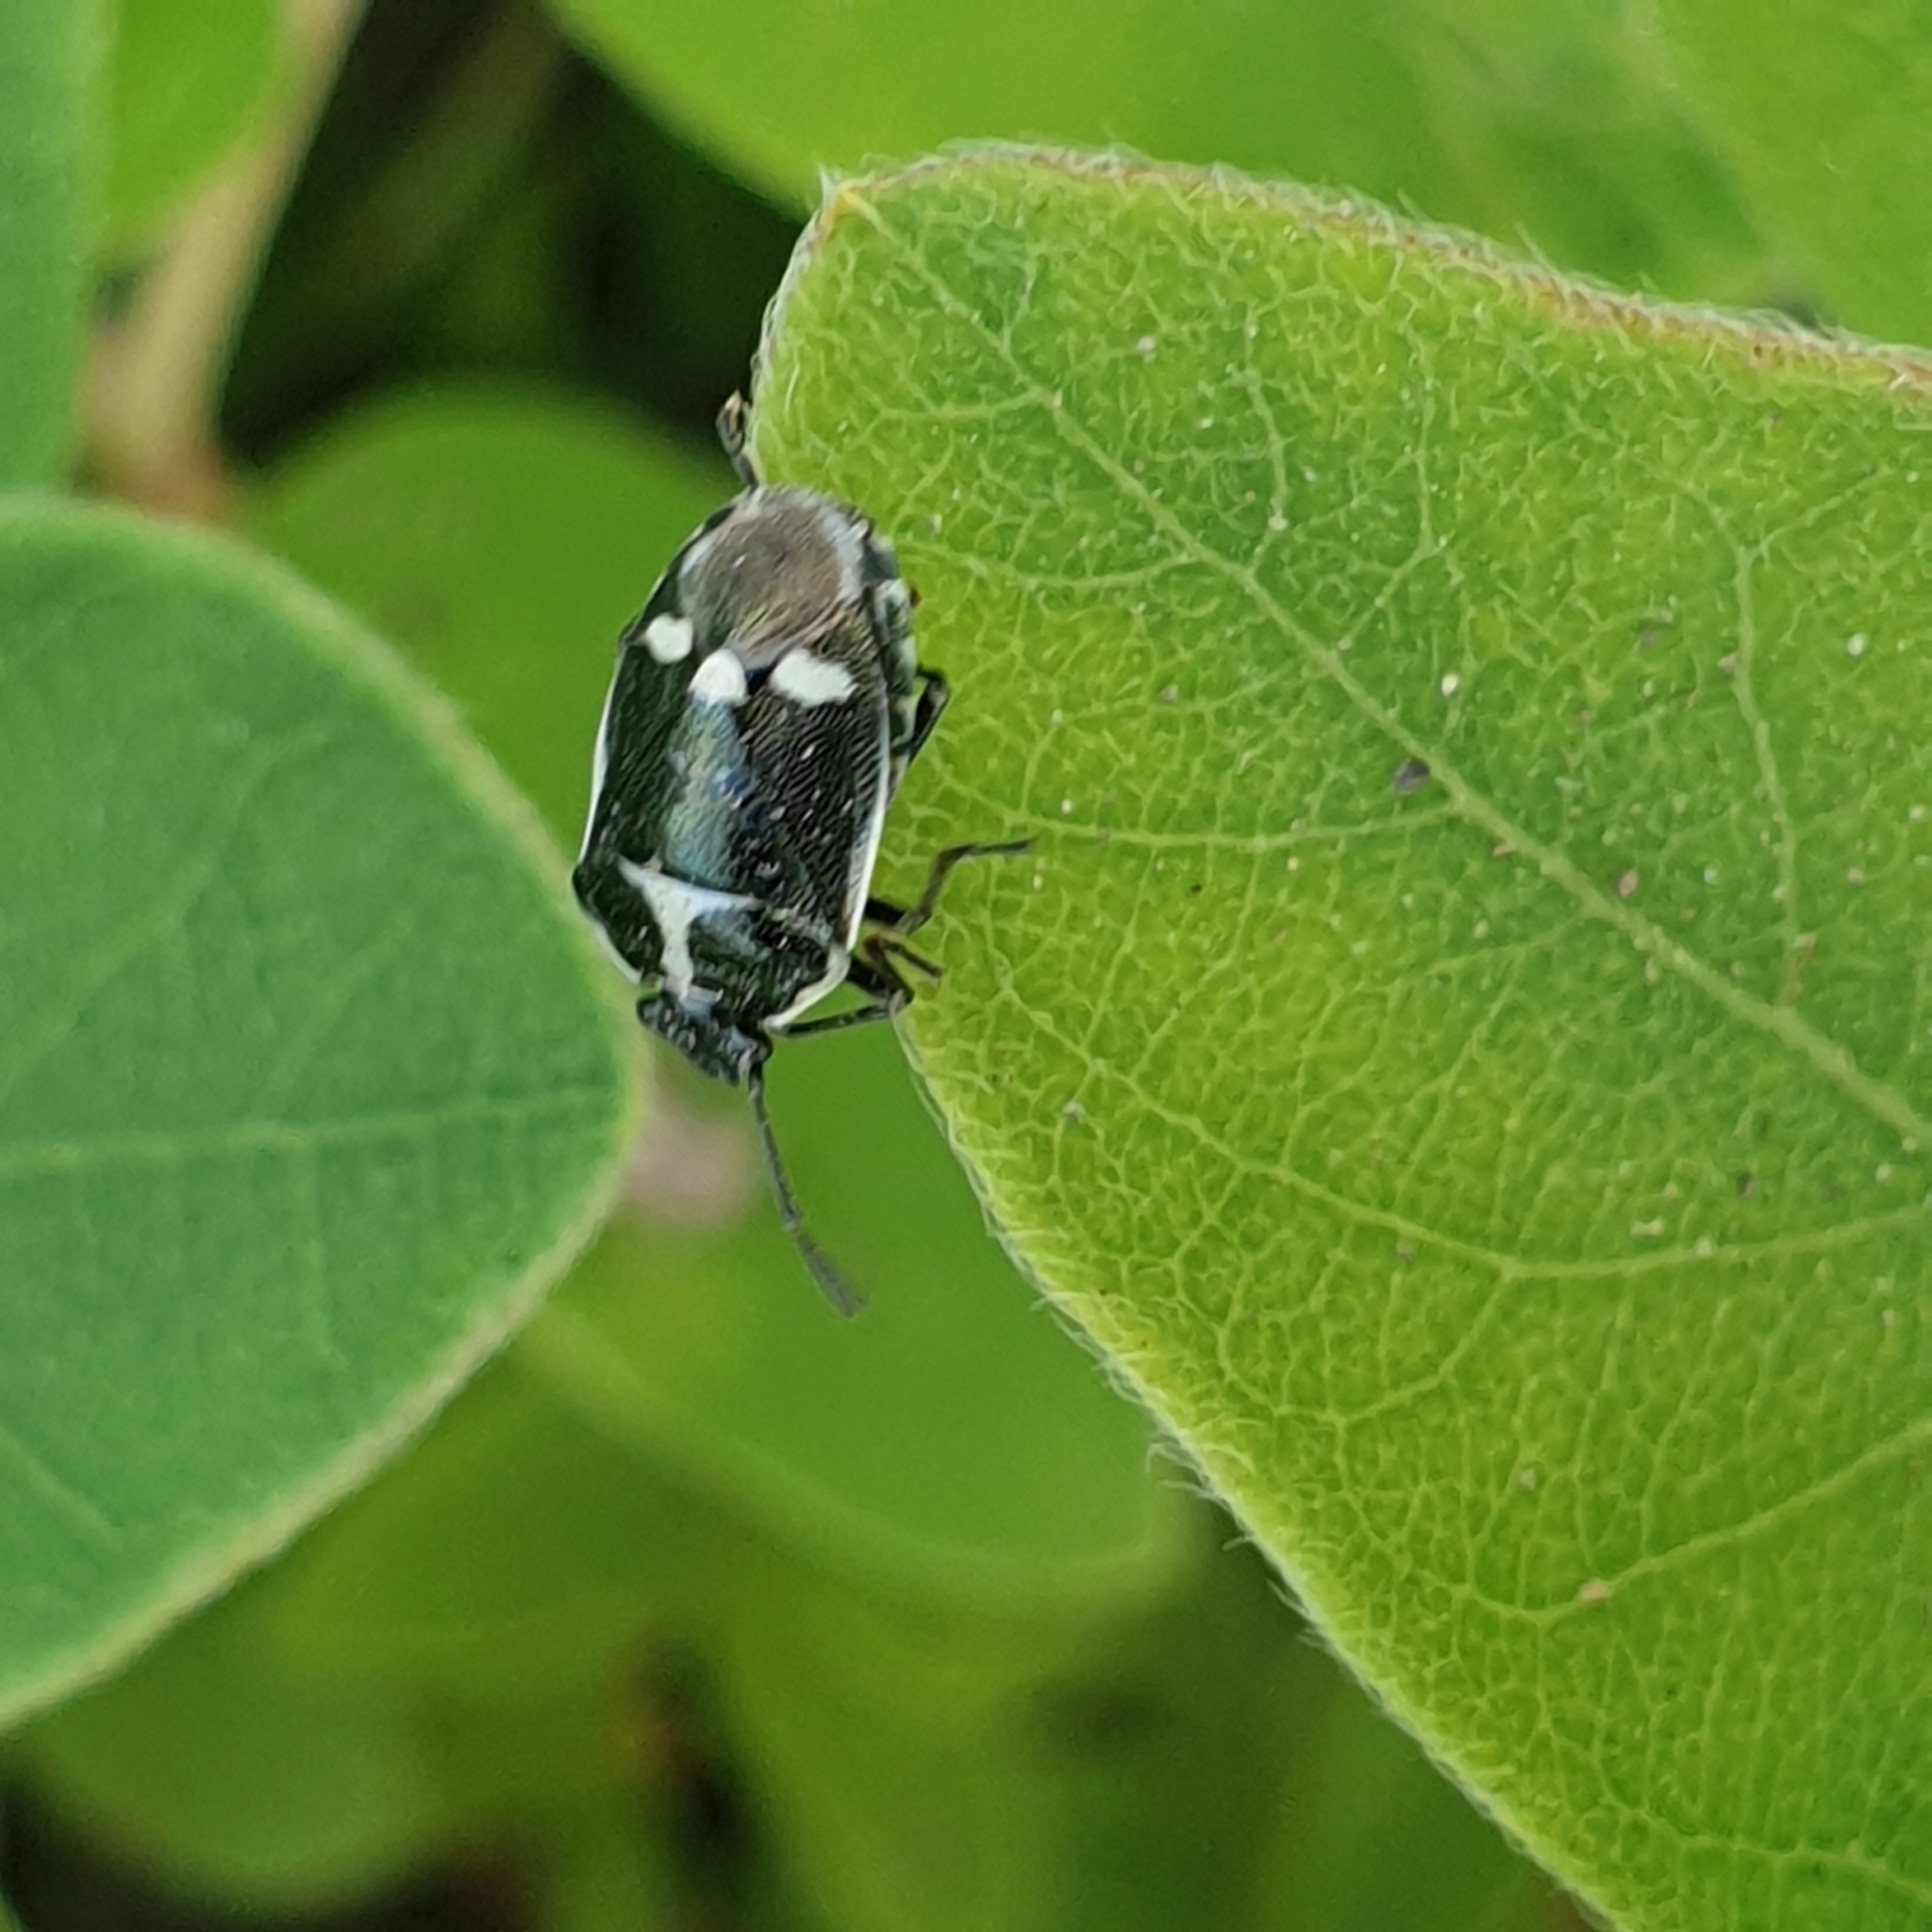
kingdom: Animalia
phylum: Arthropoda
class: Insecta
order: Hemiptera
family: Pentatomidae
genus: Eurydema
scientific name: Eurydema oleracea
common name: Cabbage bug
